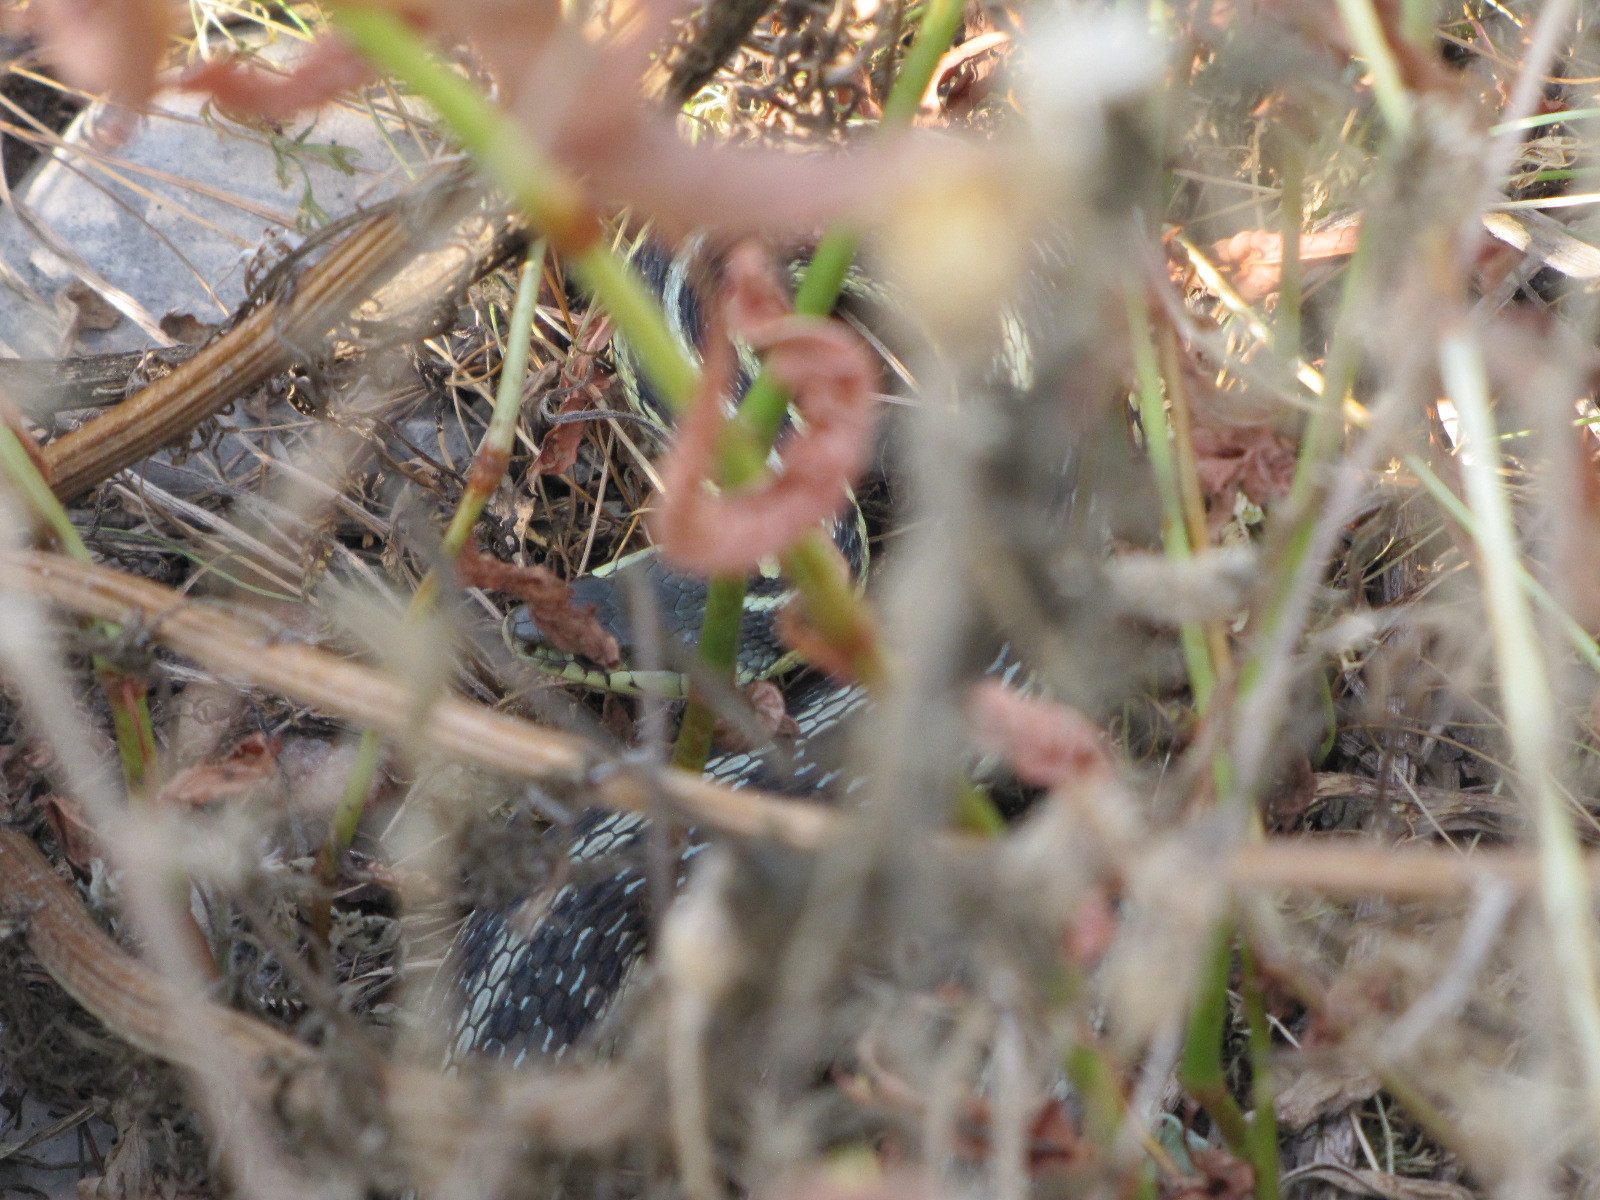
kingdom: Animalia
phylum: Chordata
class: Squamata
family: Colubridae
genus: Thamnophis
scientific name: Thamnophis sirtalis
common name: Common garter snake
